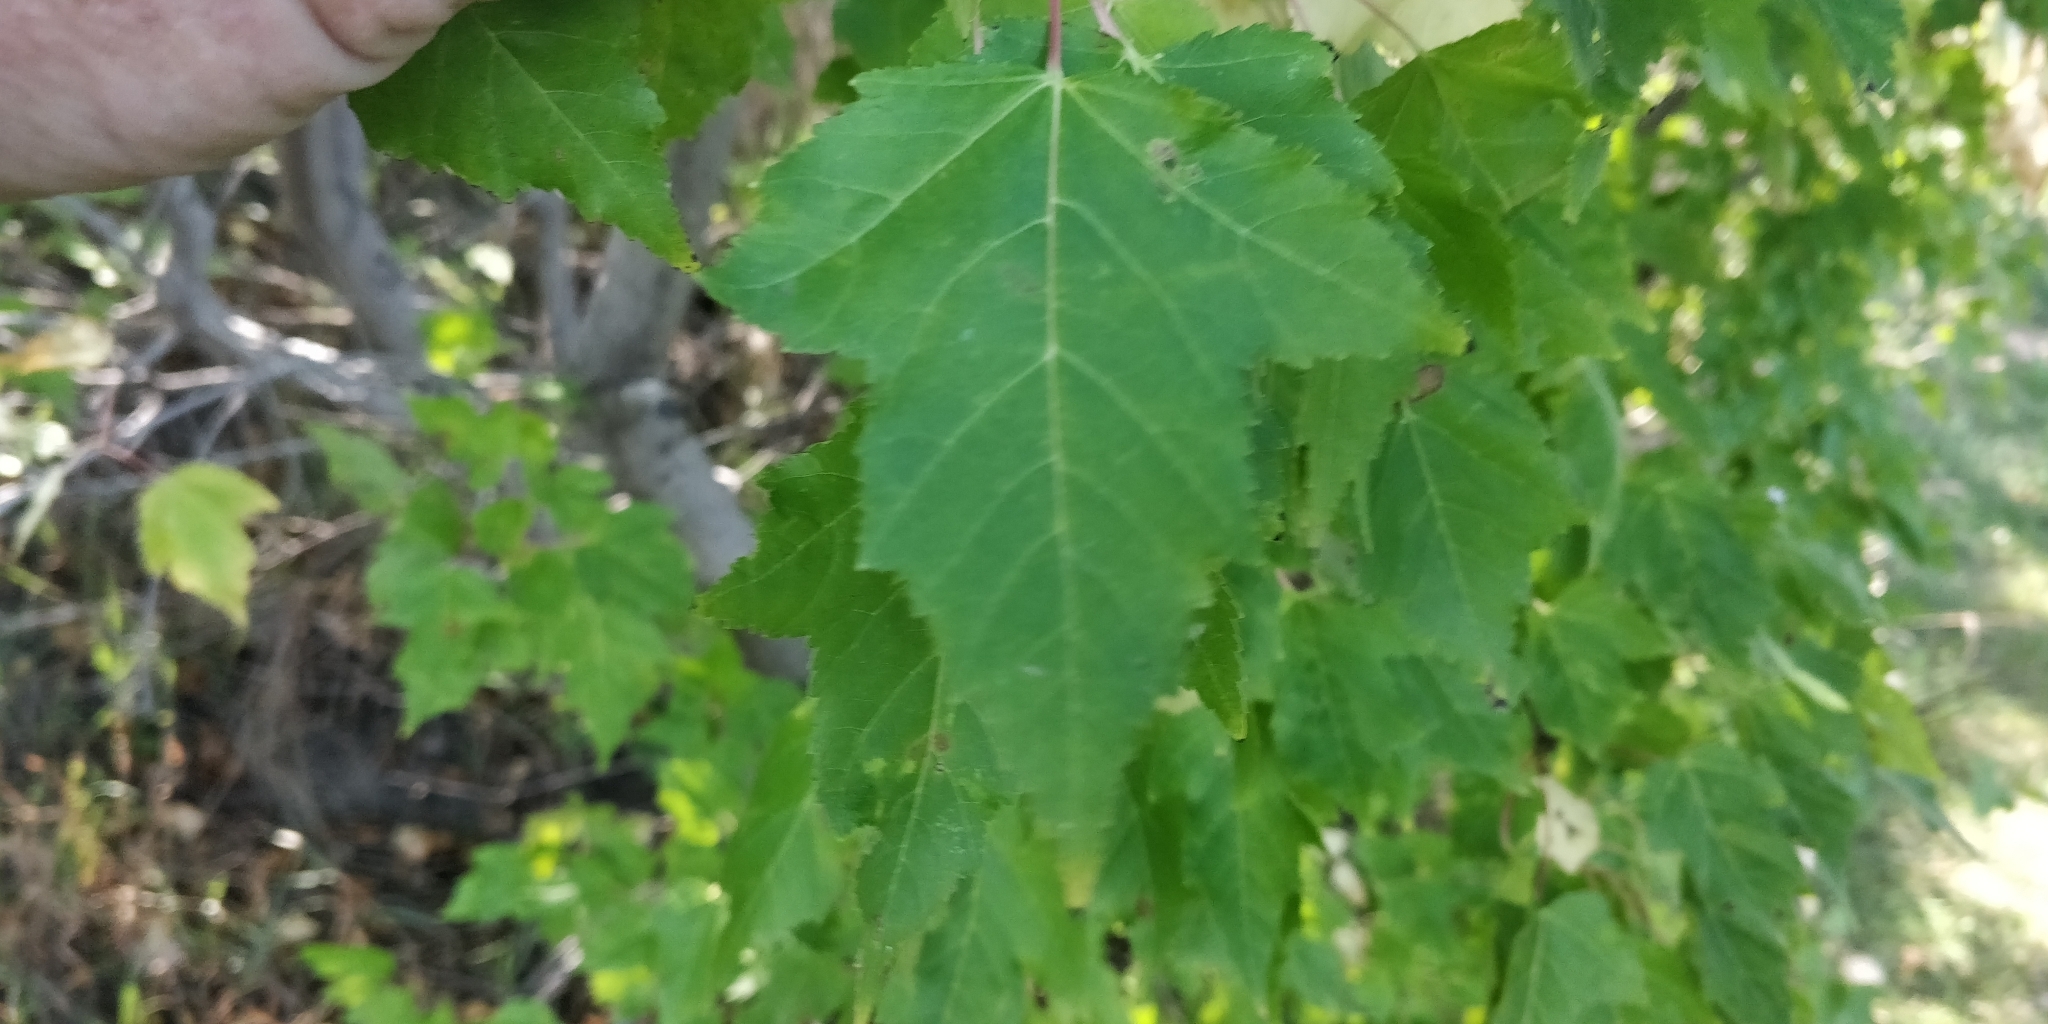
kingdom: Plantae
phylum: Tracheophyta
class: Magnoliopsida
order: Sapindales
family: Sapindaceae
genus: Acer
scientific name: Acer tataricum
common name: Tartar maple
